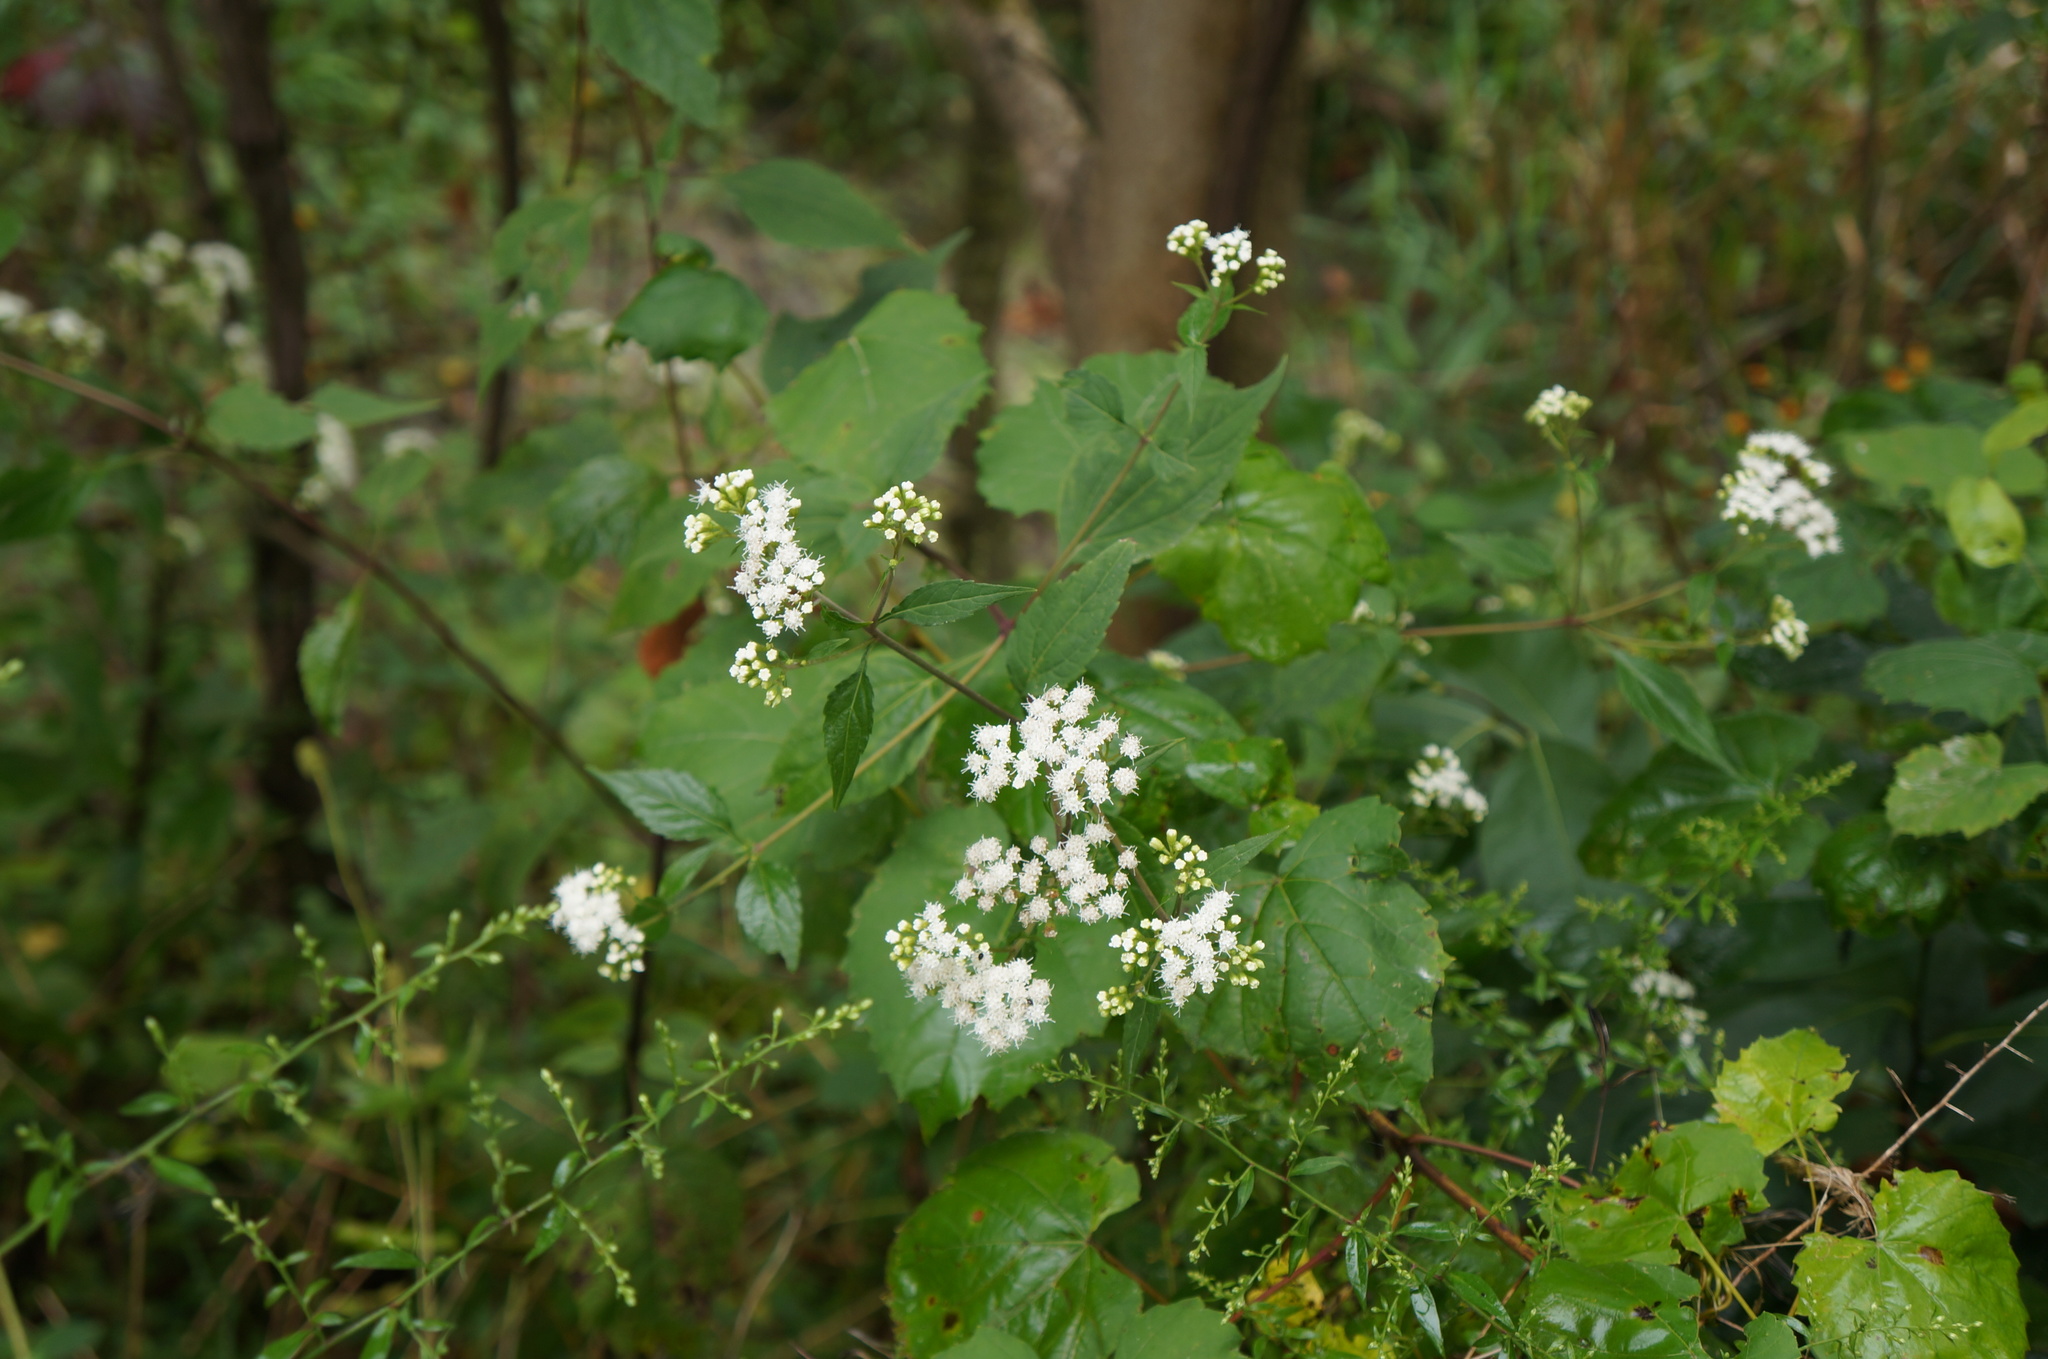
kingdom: Plantae
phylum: Tracheophyta
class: Magnoliopsida
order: Asterales
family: Asteraceae
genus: Ageratina
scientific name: Ageratina altissima
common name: White snakeroot
